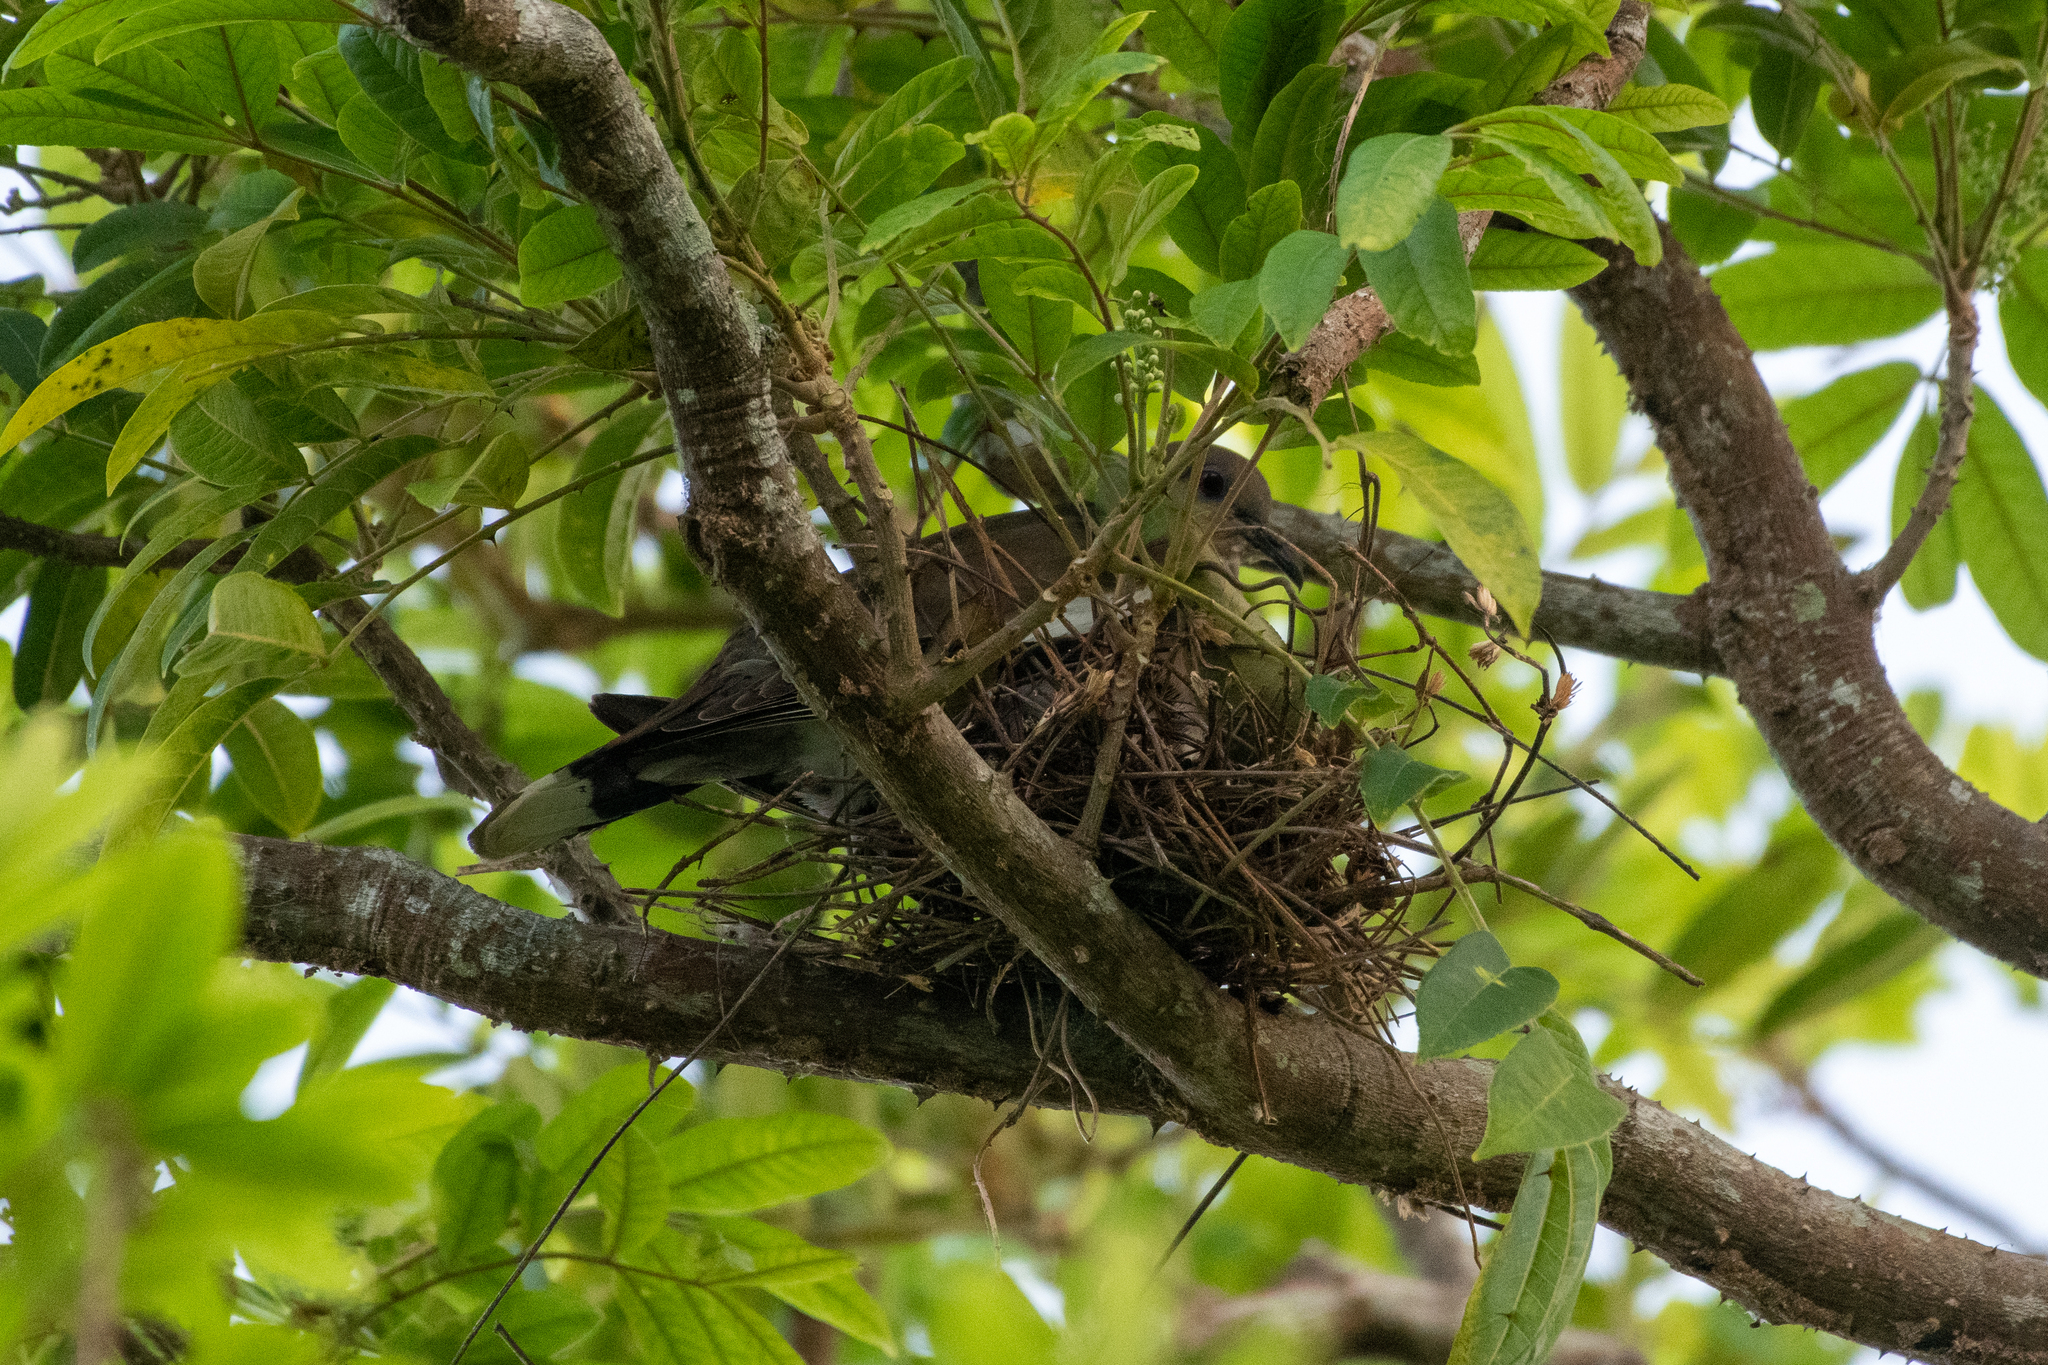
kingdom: Animalia
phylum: Chordata
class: Aves
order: Columbiformes
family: Columbidae
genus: Zenaida
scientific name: Zenaida asiatica
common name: White-winged dove
